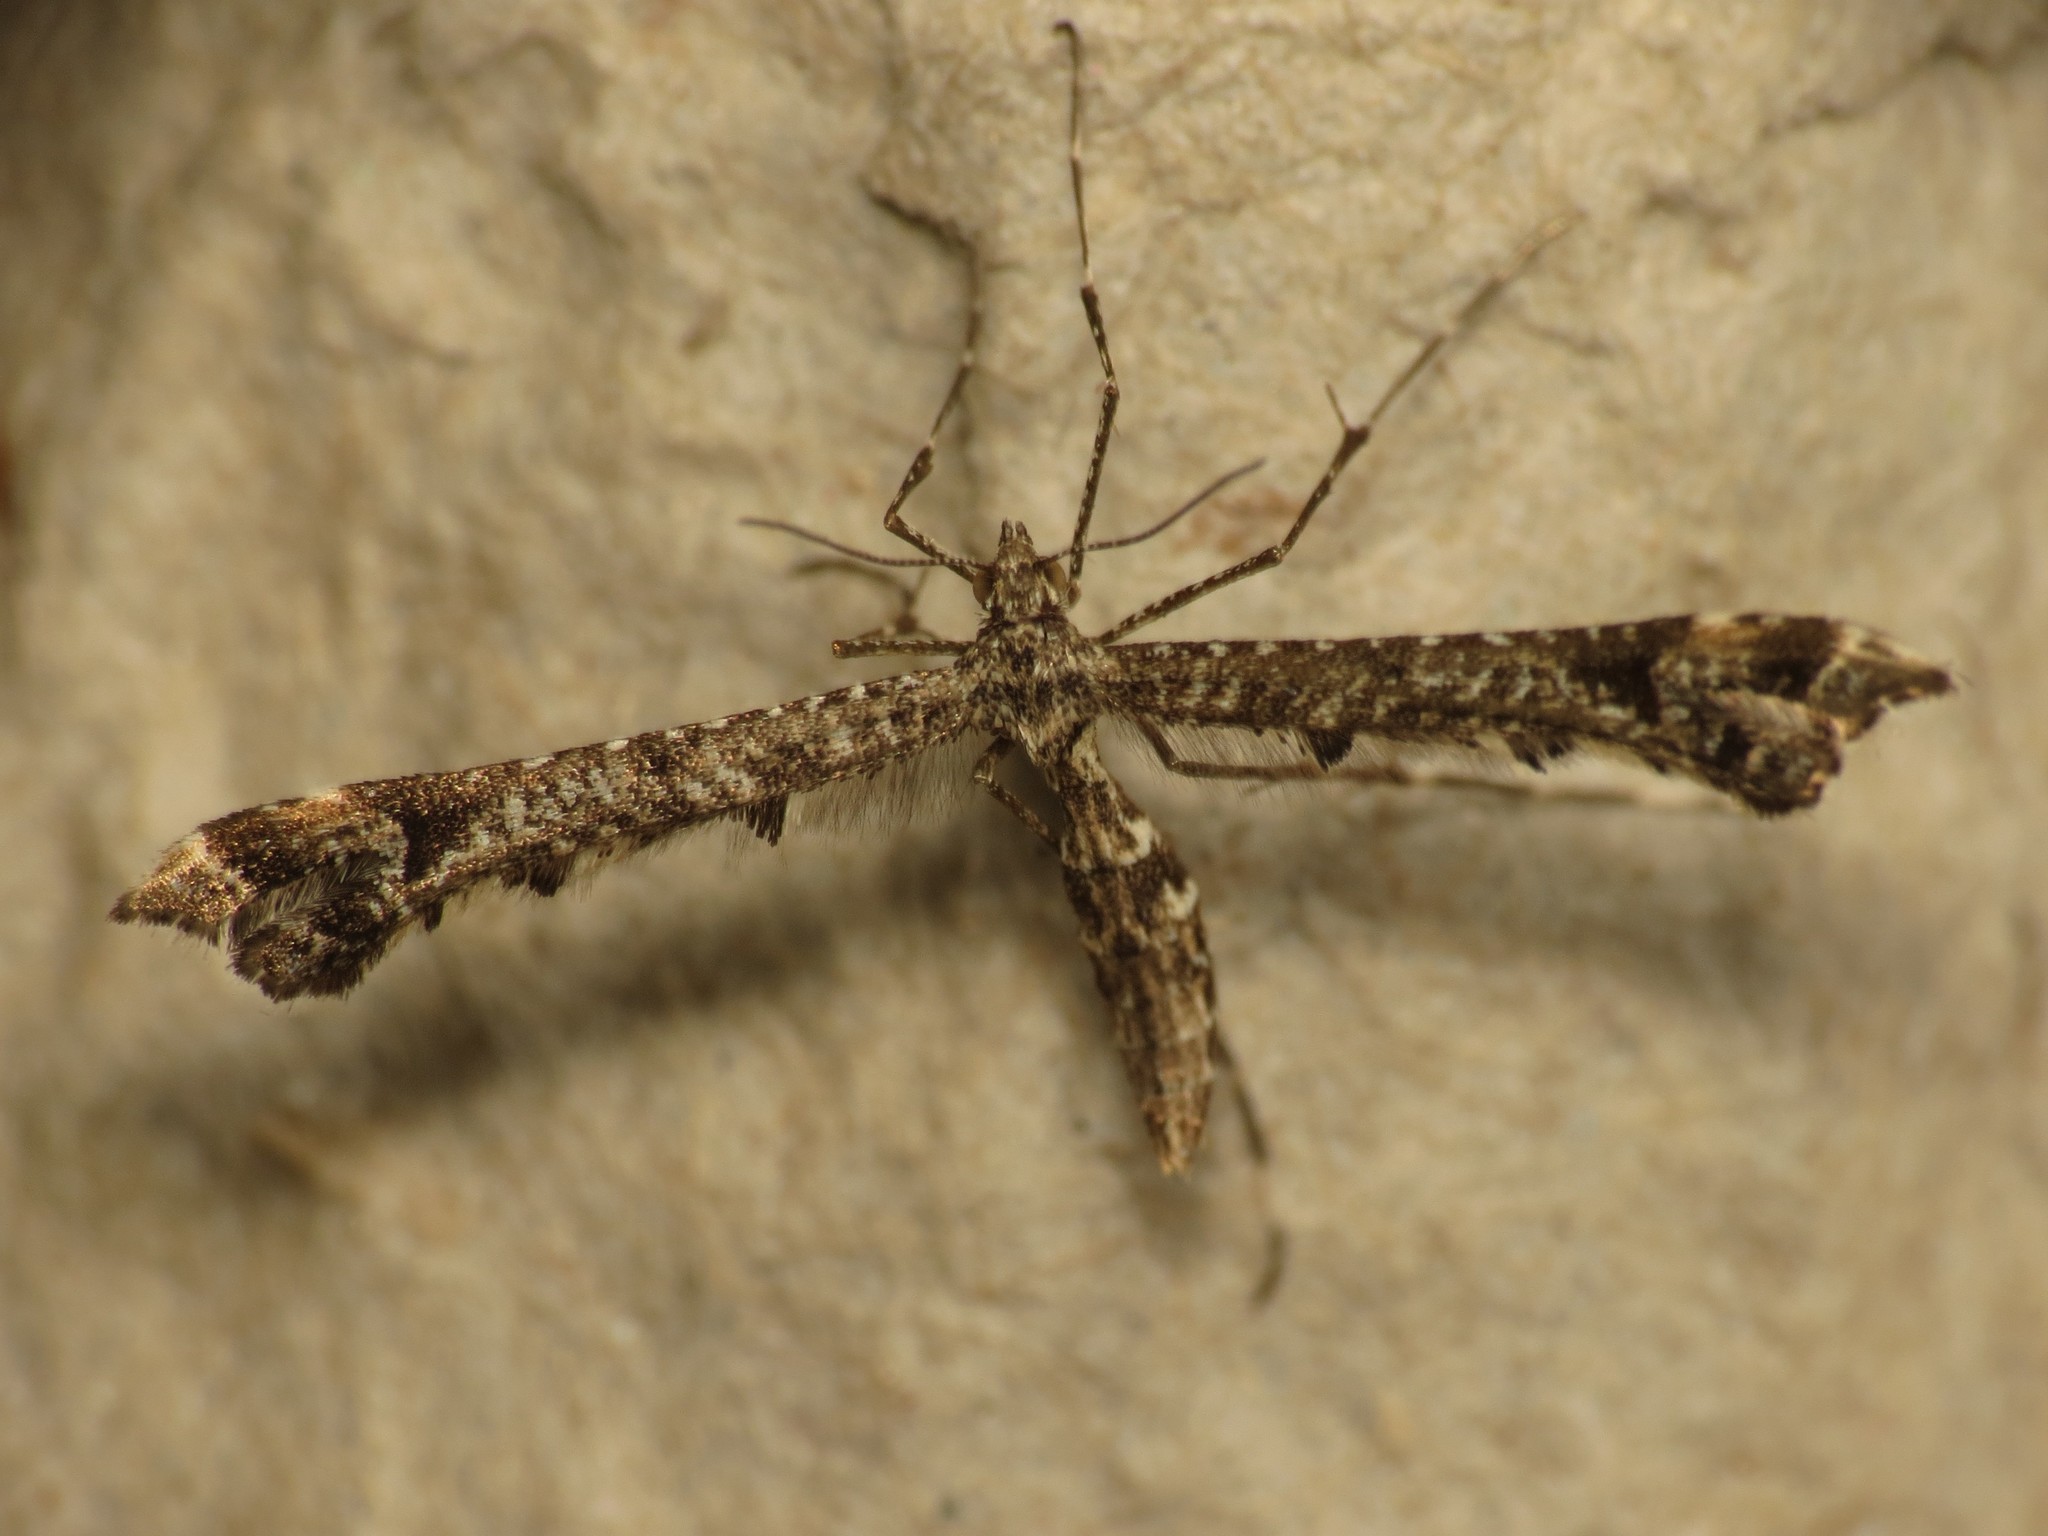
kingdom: Animalia
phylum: Arthropoda
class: Insecta
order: Lepidoptera
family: Pterophoridae
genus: Amblyptilia
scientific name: Amblyptilia punctidactyla
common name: Brindled plume
